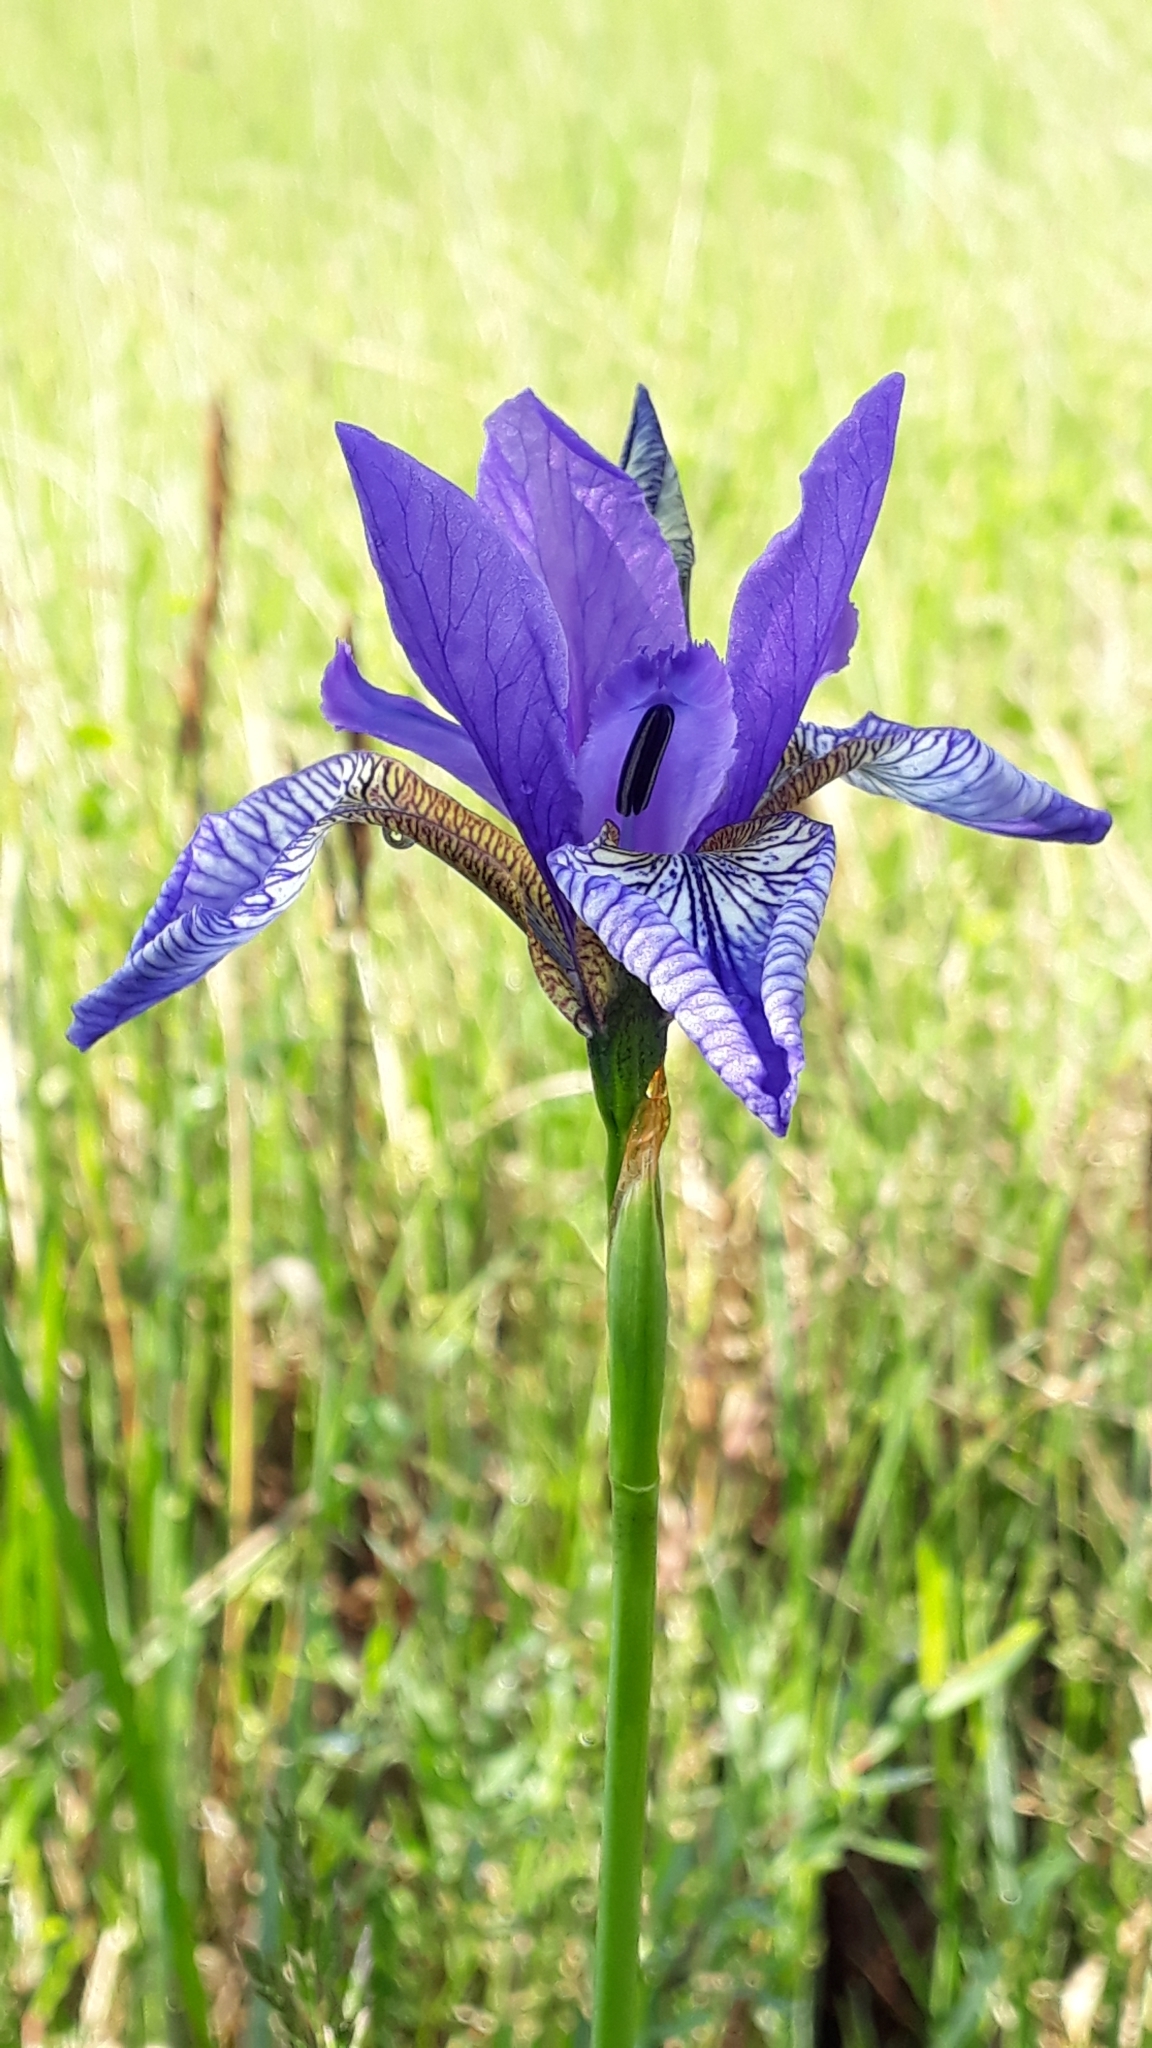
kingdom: Plantae
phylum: Tracheophyta
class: Liliopsida
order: Asparagales
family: Iridaceae
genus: Iris
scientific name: Iris sibirica
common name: Siberian iris
